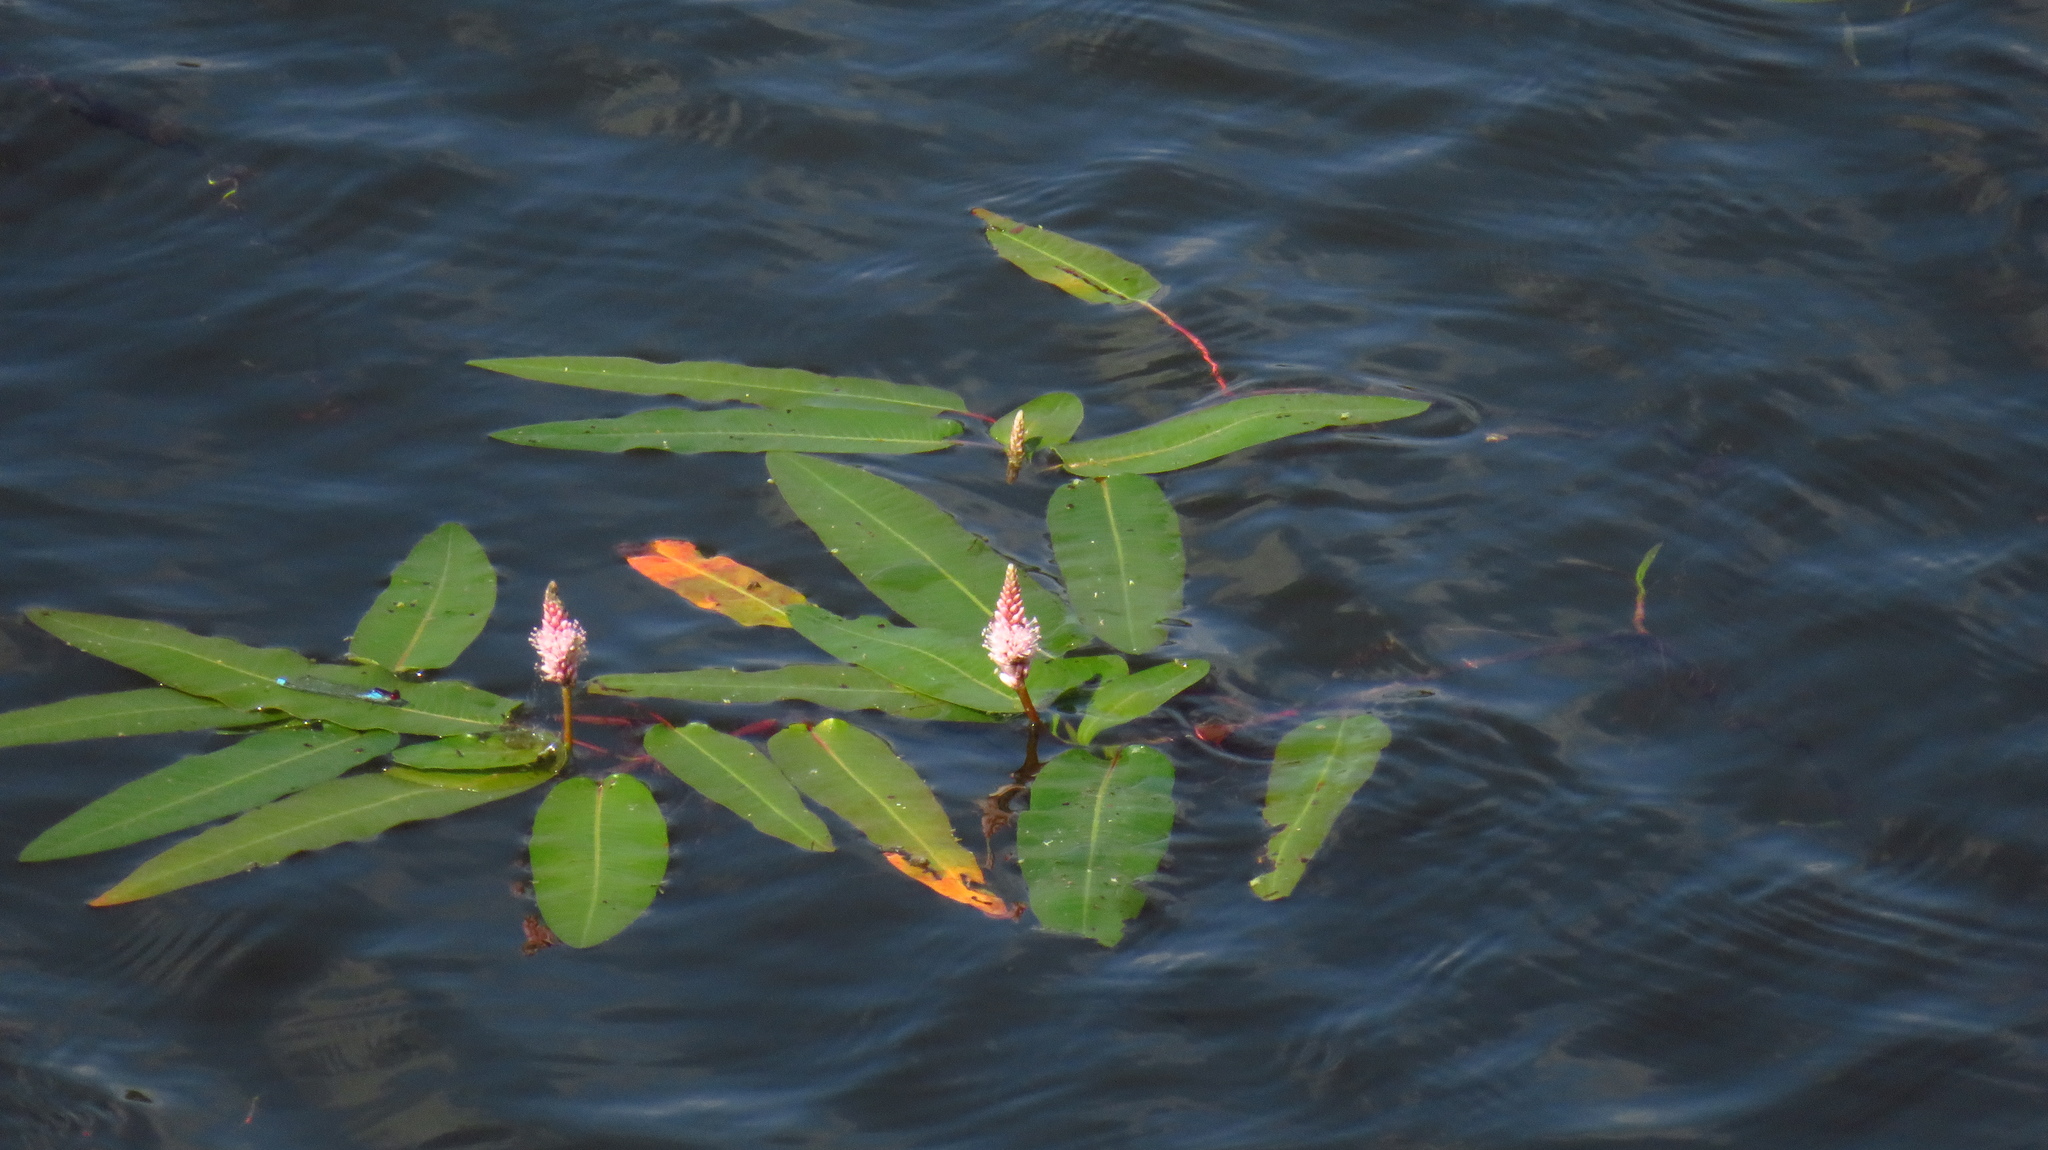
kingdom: Plantae
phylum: Tracheophyta
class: Magnoliopsida
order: Caryophyllales
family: Polygonaceae
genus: Persicaria
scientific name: Persicaria amphibia
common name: Amphibious bistort
